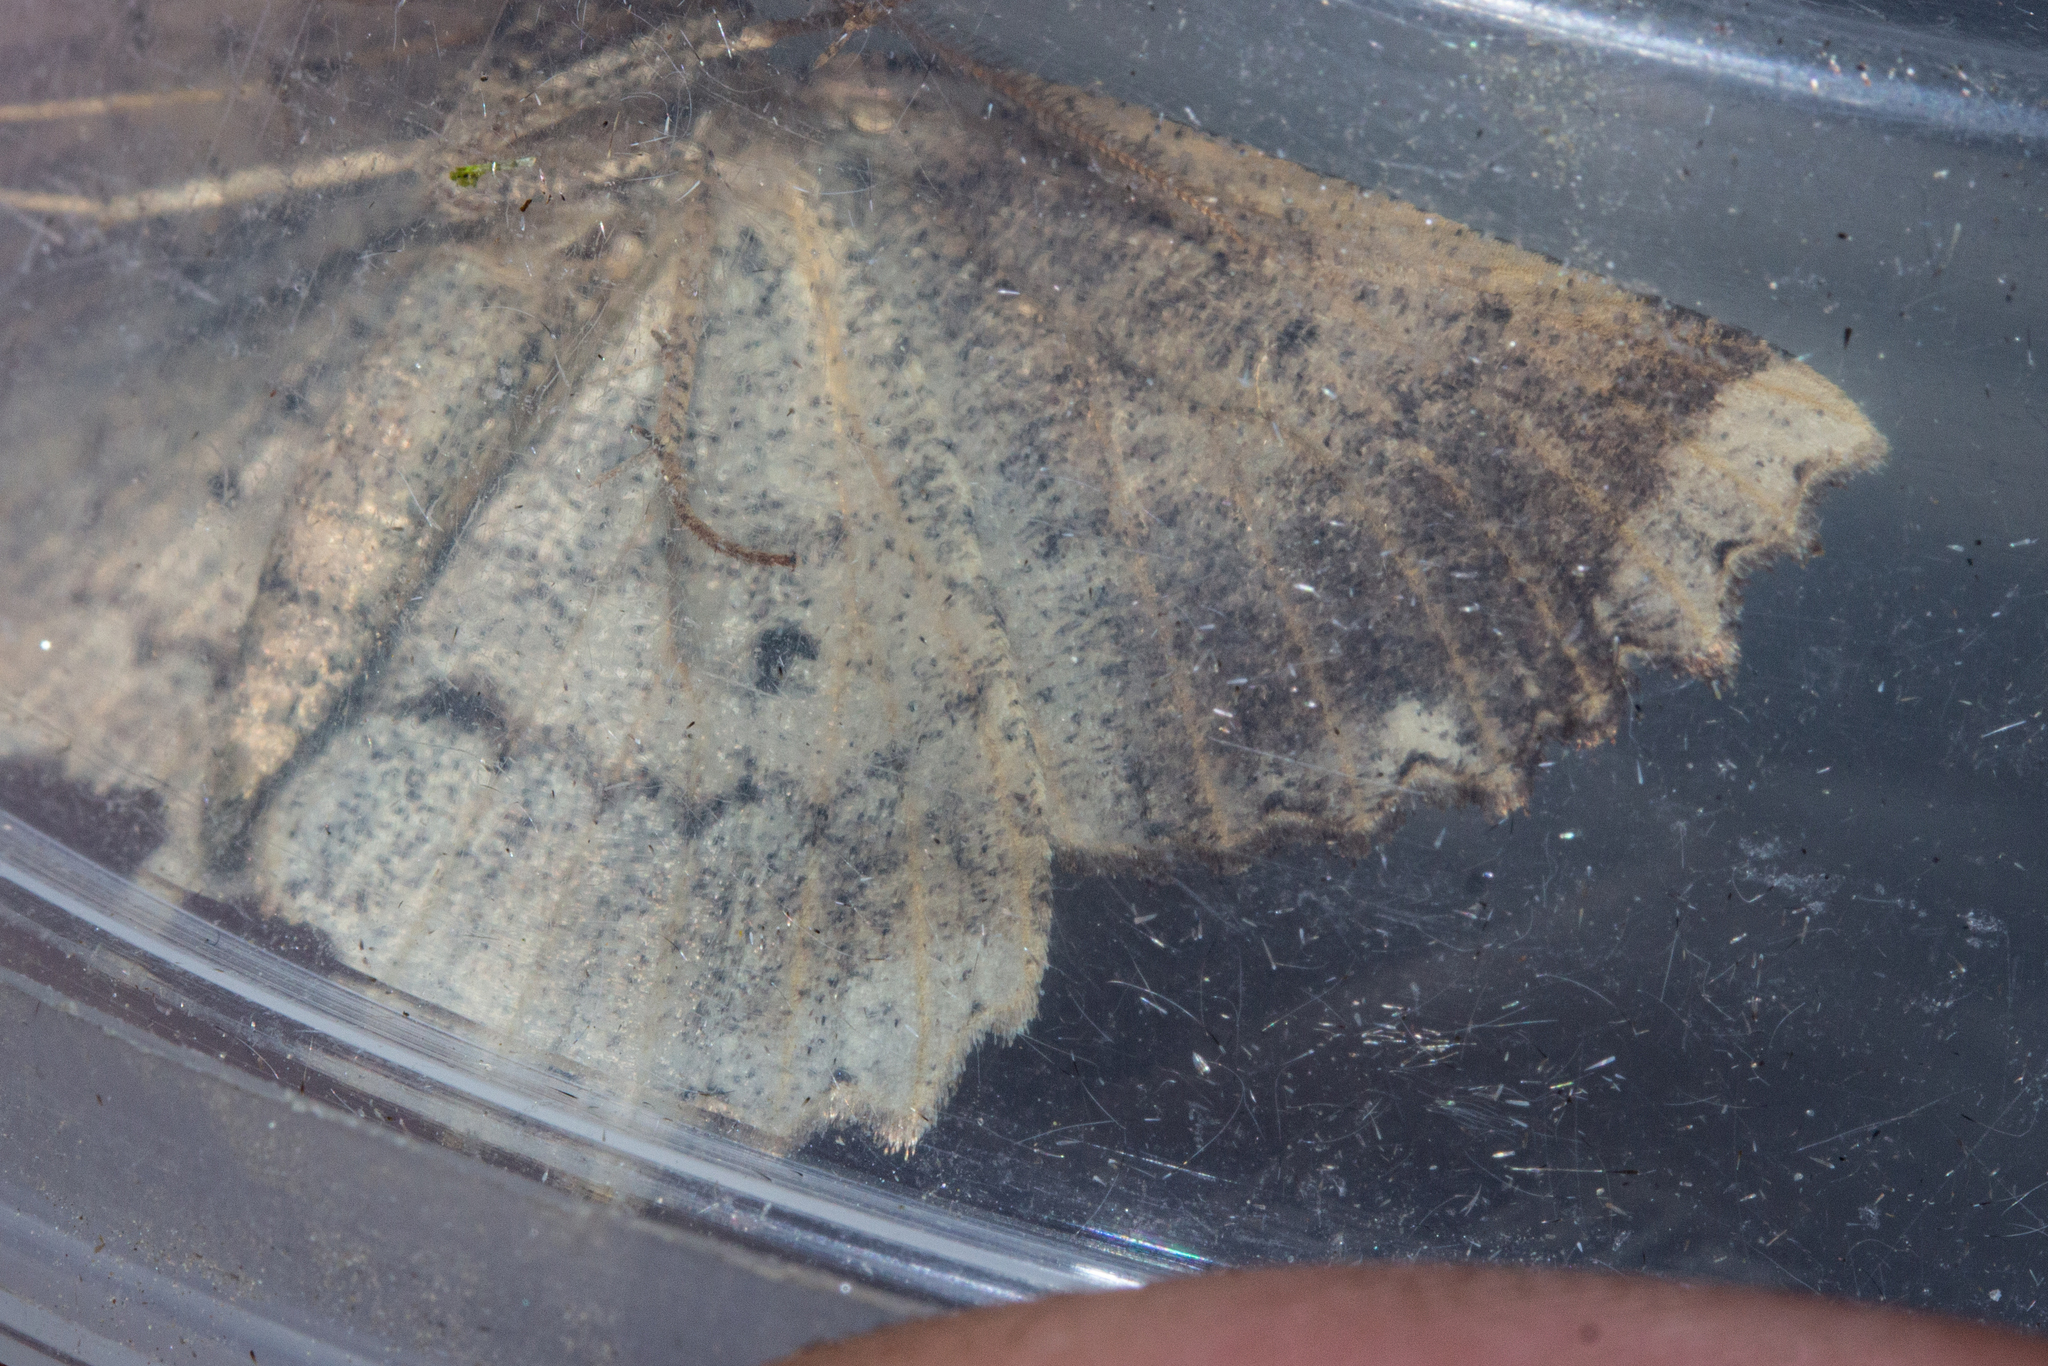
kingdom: Animalia
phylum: Arthropoda
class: Insecta
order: Lepidoptera
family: Geometridae
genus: Gellonia
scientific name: Gellonia pannularia
